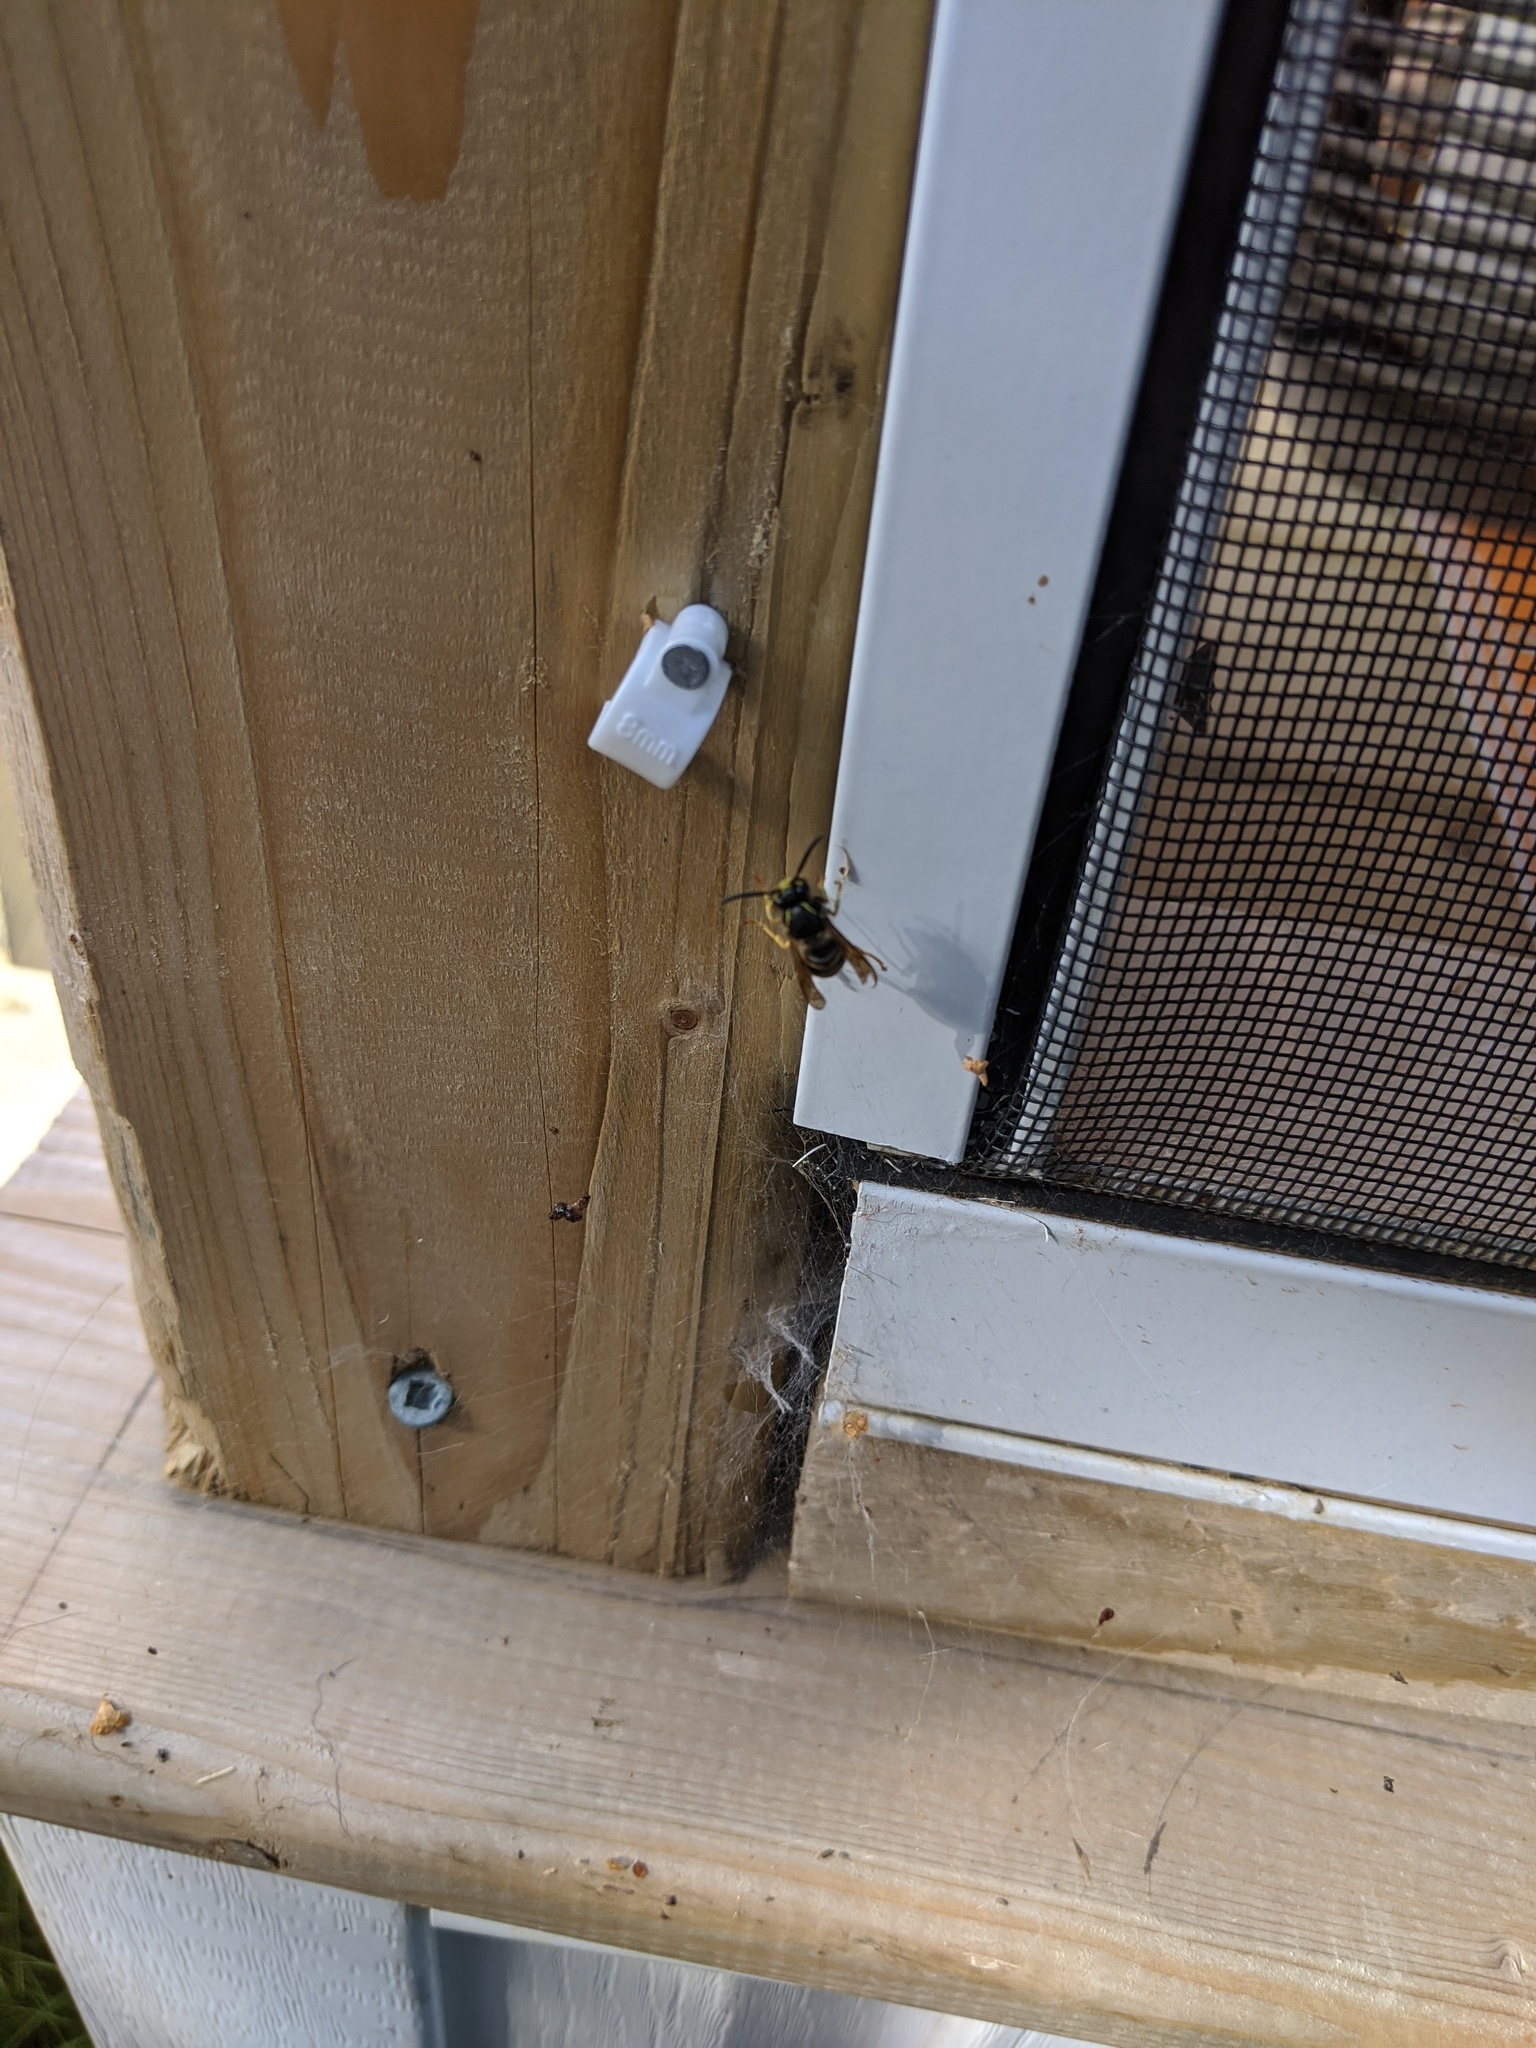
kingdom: Animalia
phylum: Arthropoda
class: Insecta
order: Hymenoptera
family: Vespidae
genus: Dolichovespula
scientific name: Dolichovespula arenaria
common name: Aerial yellowjacket
